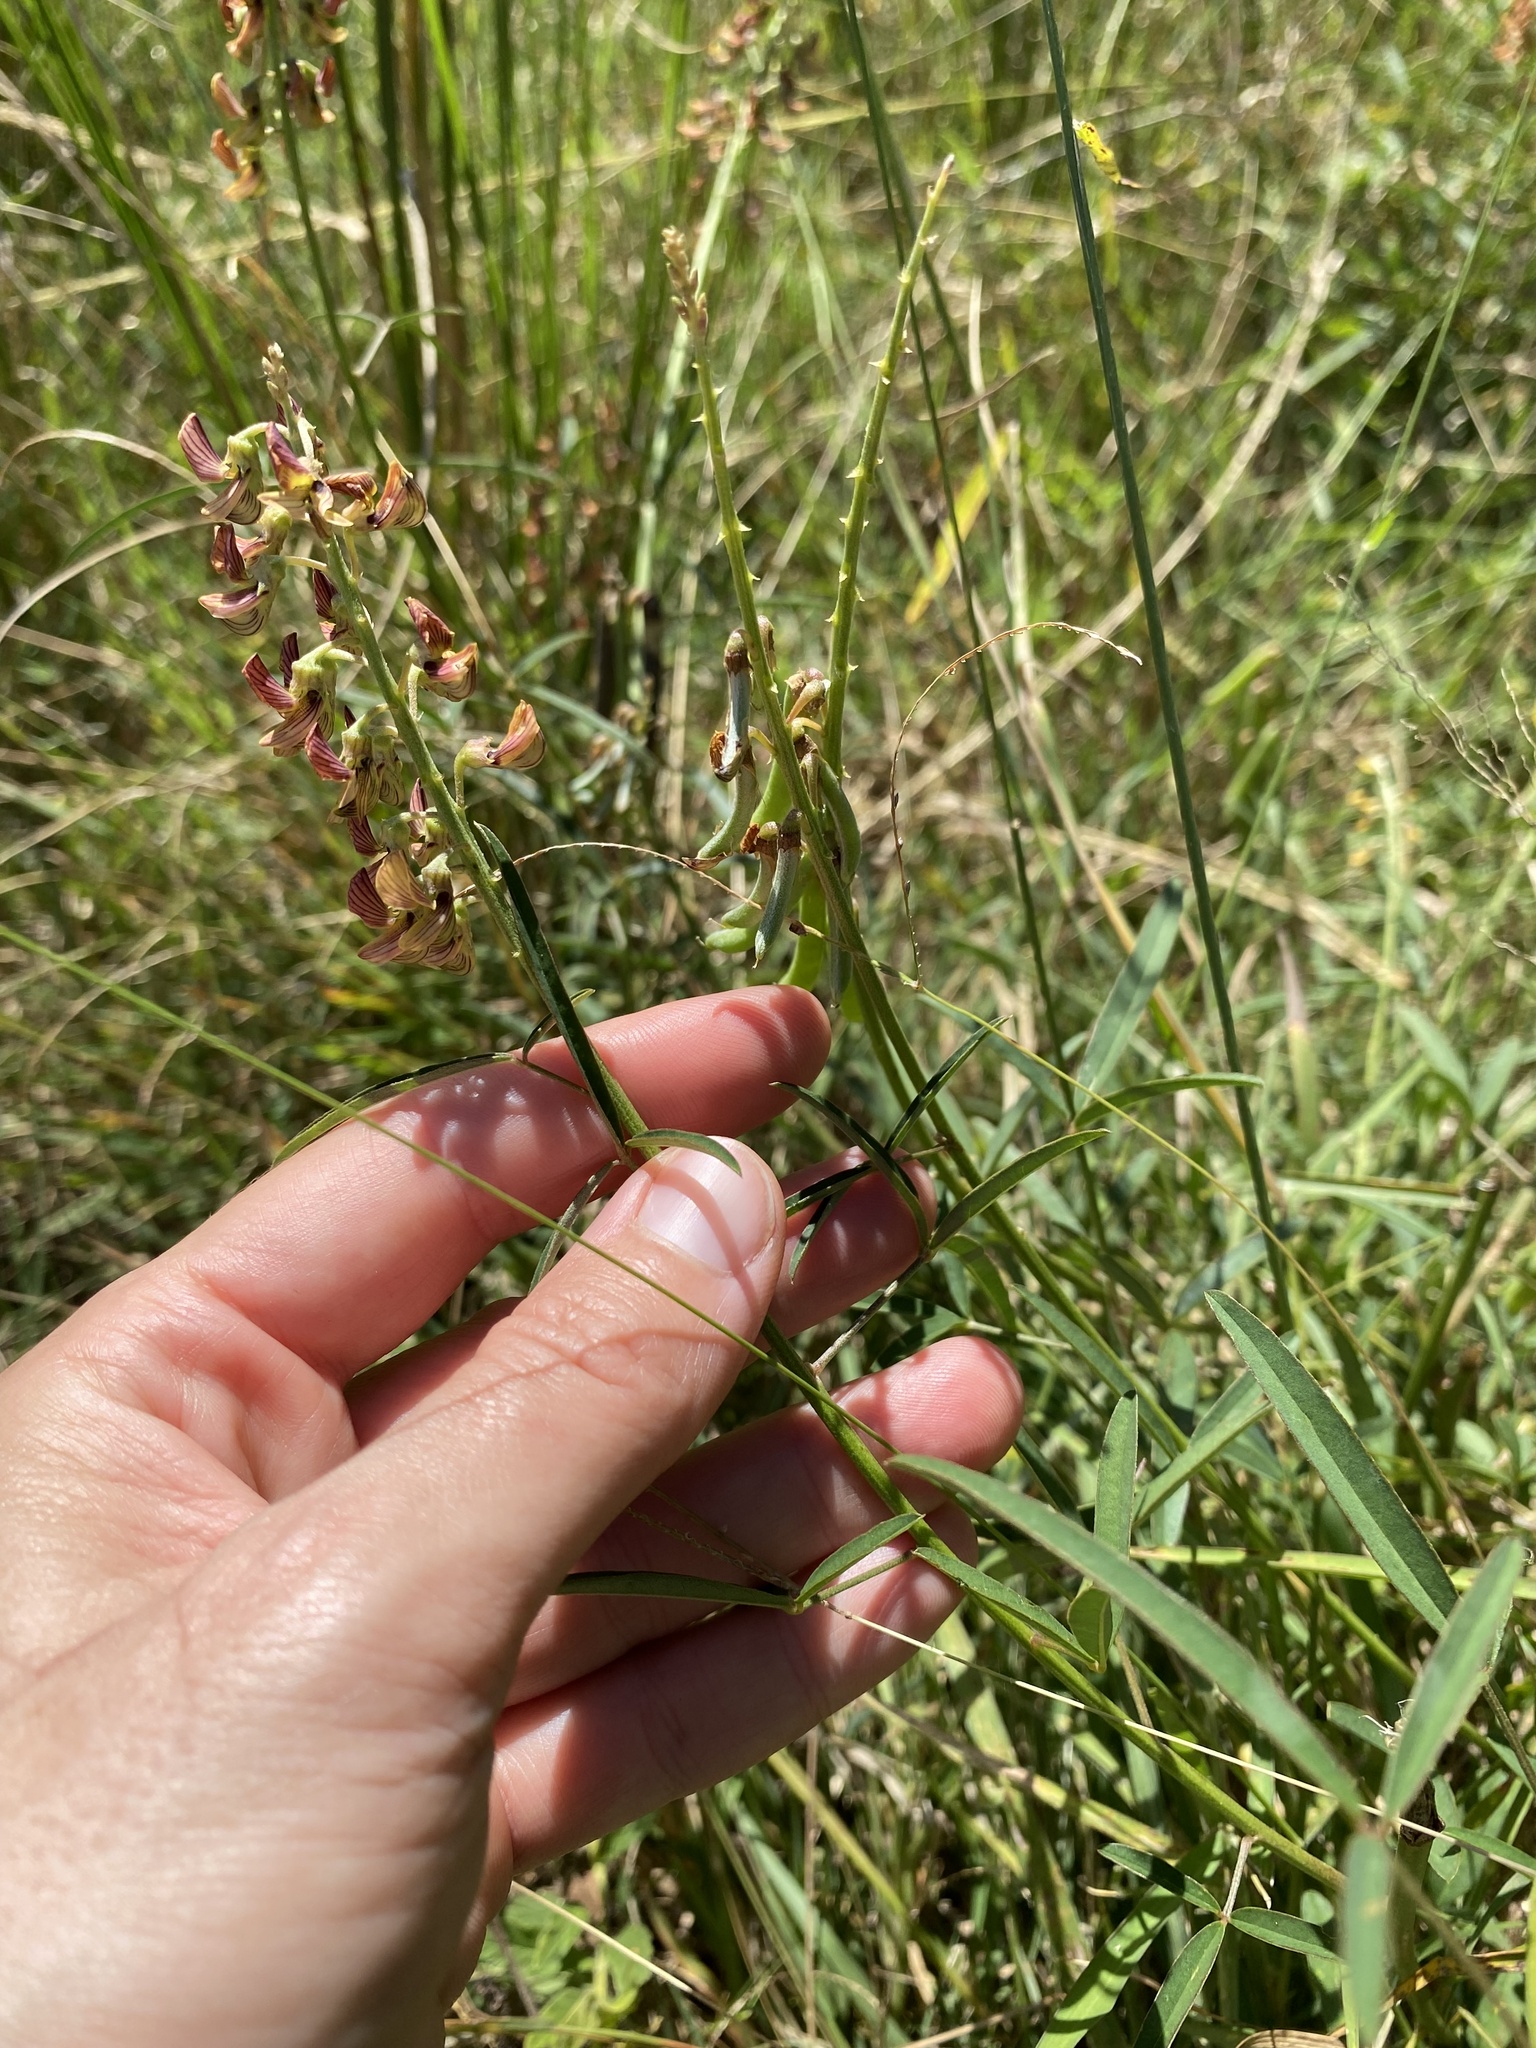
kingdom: Plantae
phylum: Tracheophyta
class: Magnoliopsida
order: Fabales
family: Fabaceae
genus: Crotalaria
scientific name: Crotalaria lanceolata
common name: Lanceleaf rattlebox
